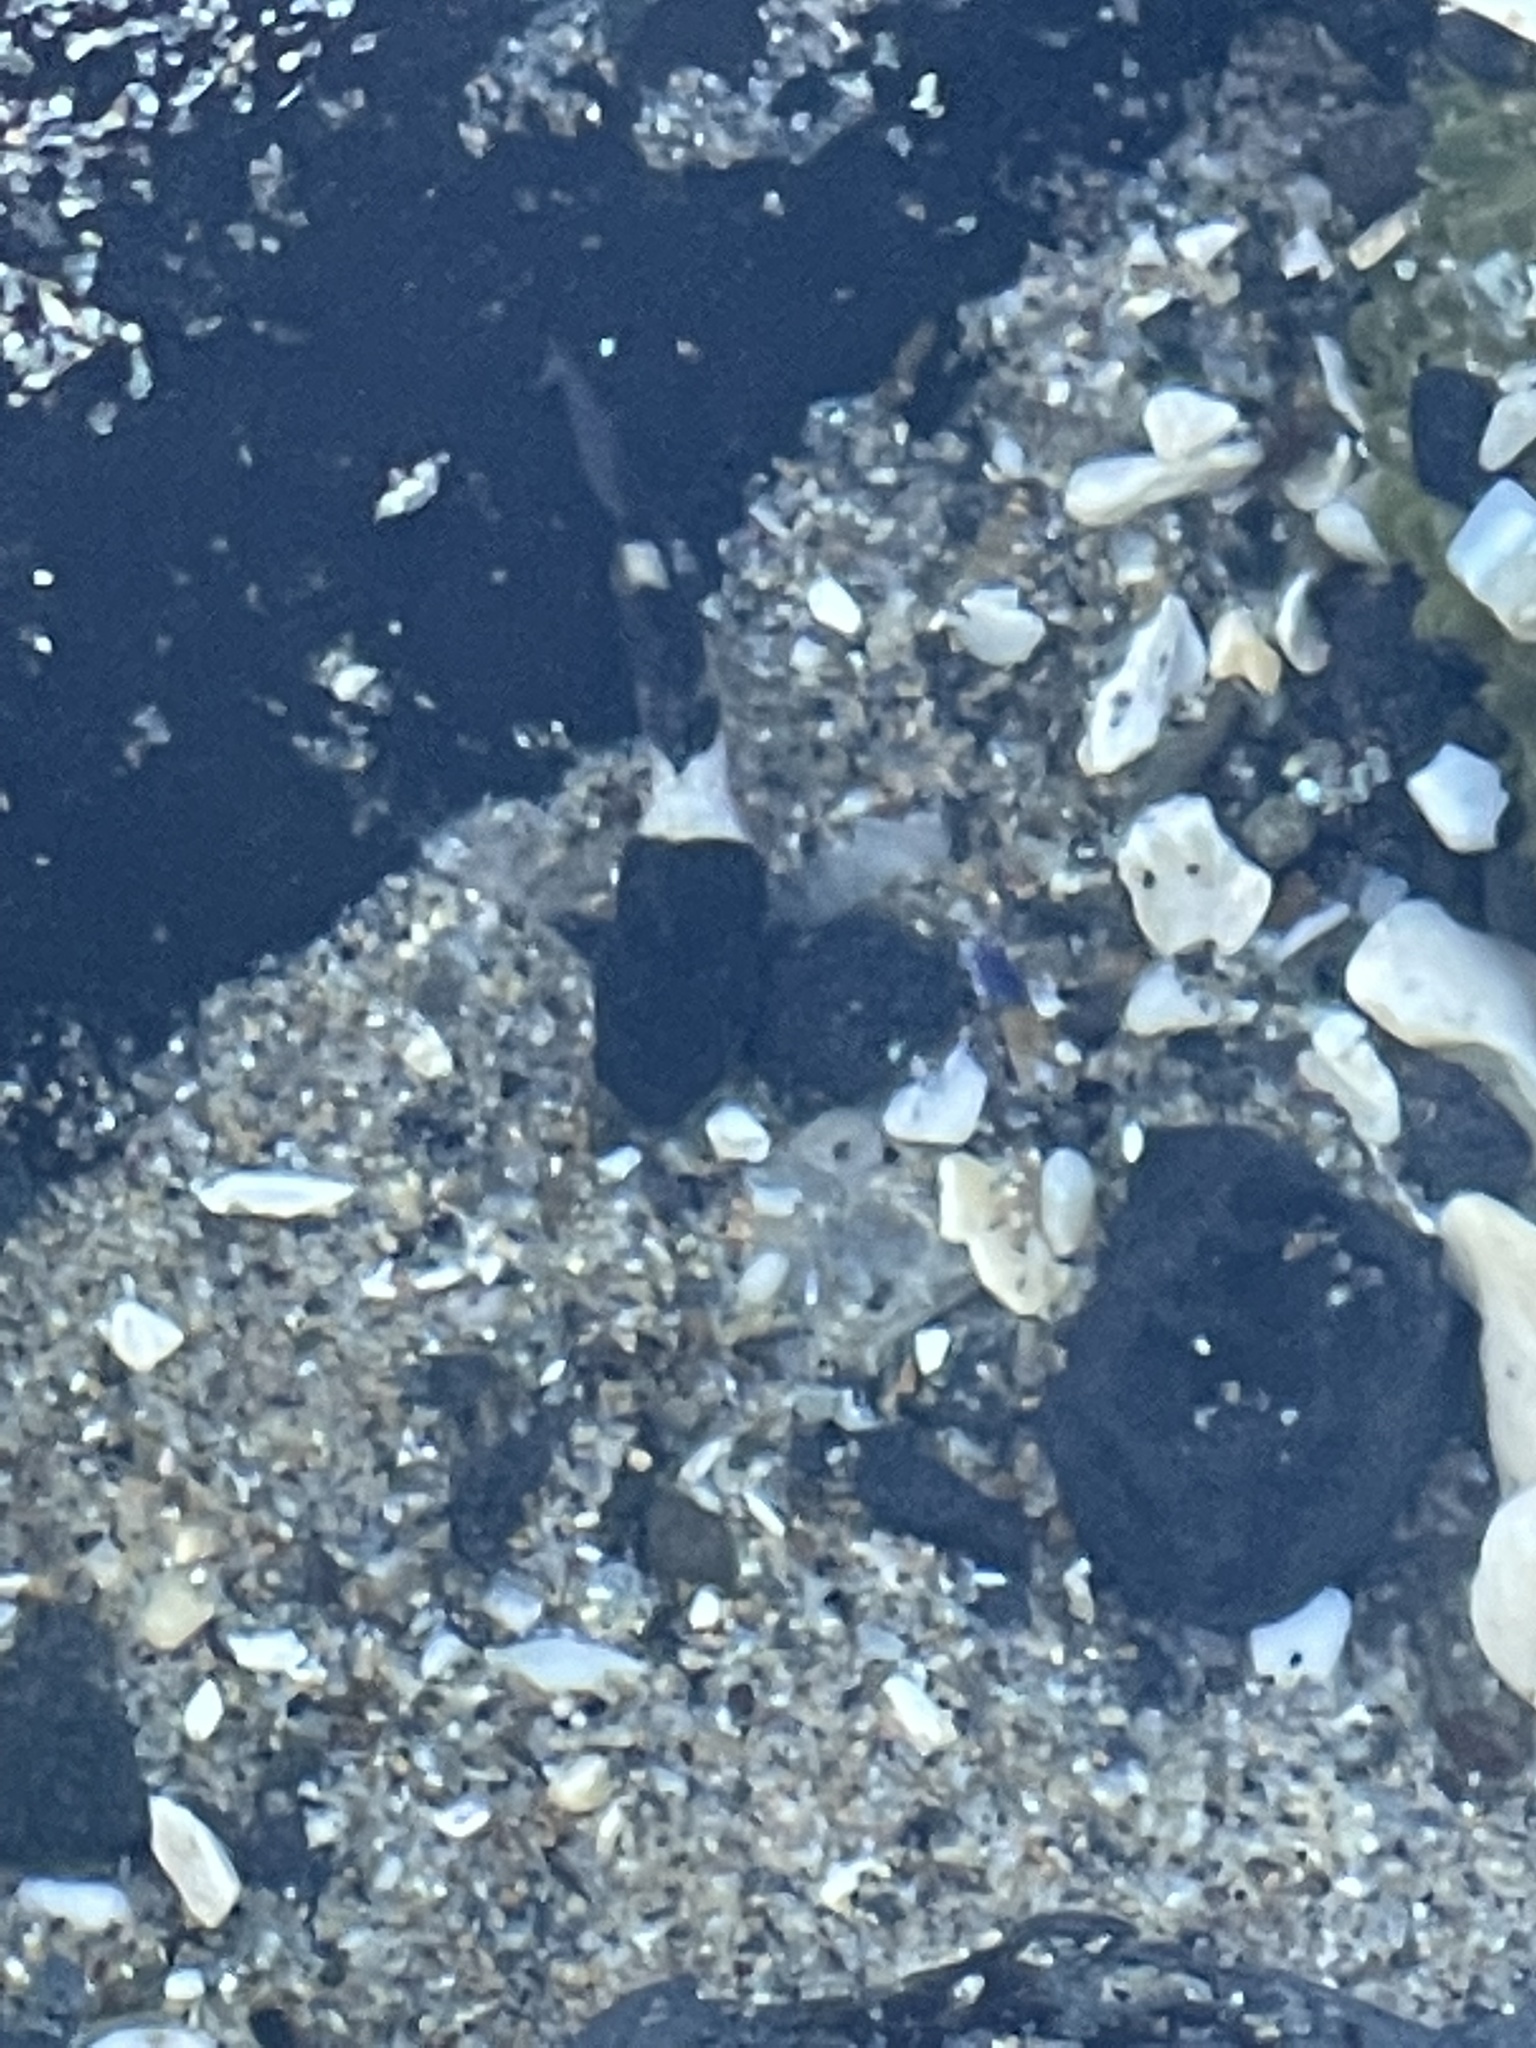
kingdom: Animalia
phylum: Chordata
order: Scorpaeniformes
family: Cottidae
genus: Clinocottus
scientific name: Clinocottus globiceps
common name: Mosshead sculpin
